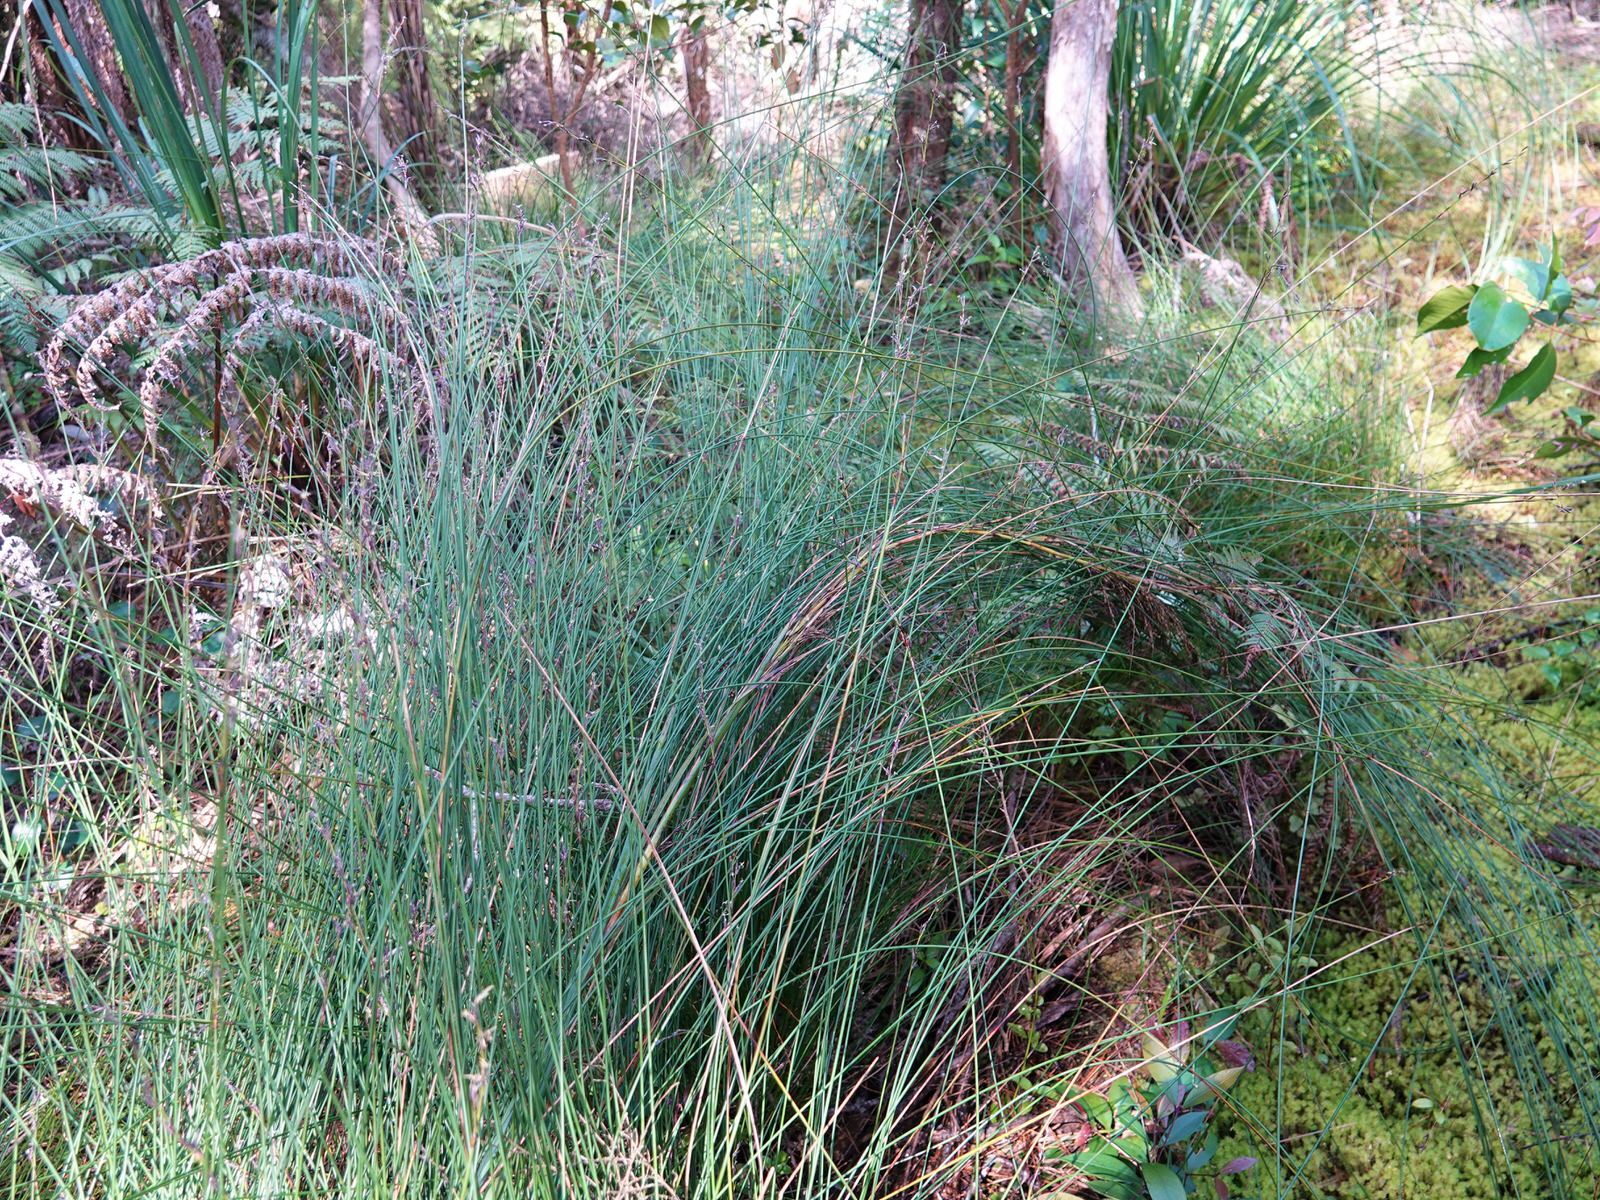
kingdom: Plantae
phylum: Tracheophyta
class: Liliopsida
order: Poales
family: Cyperaceae
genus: Schoenus
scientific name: Schoenus tendo
